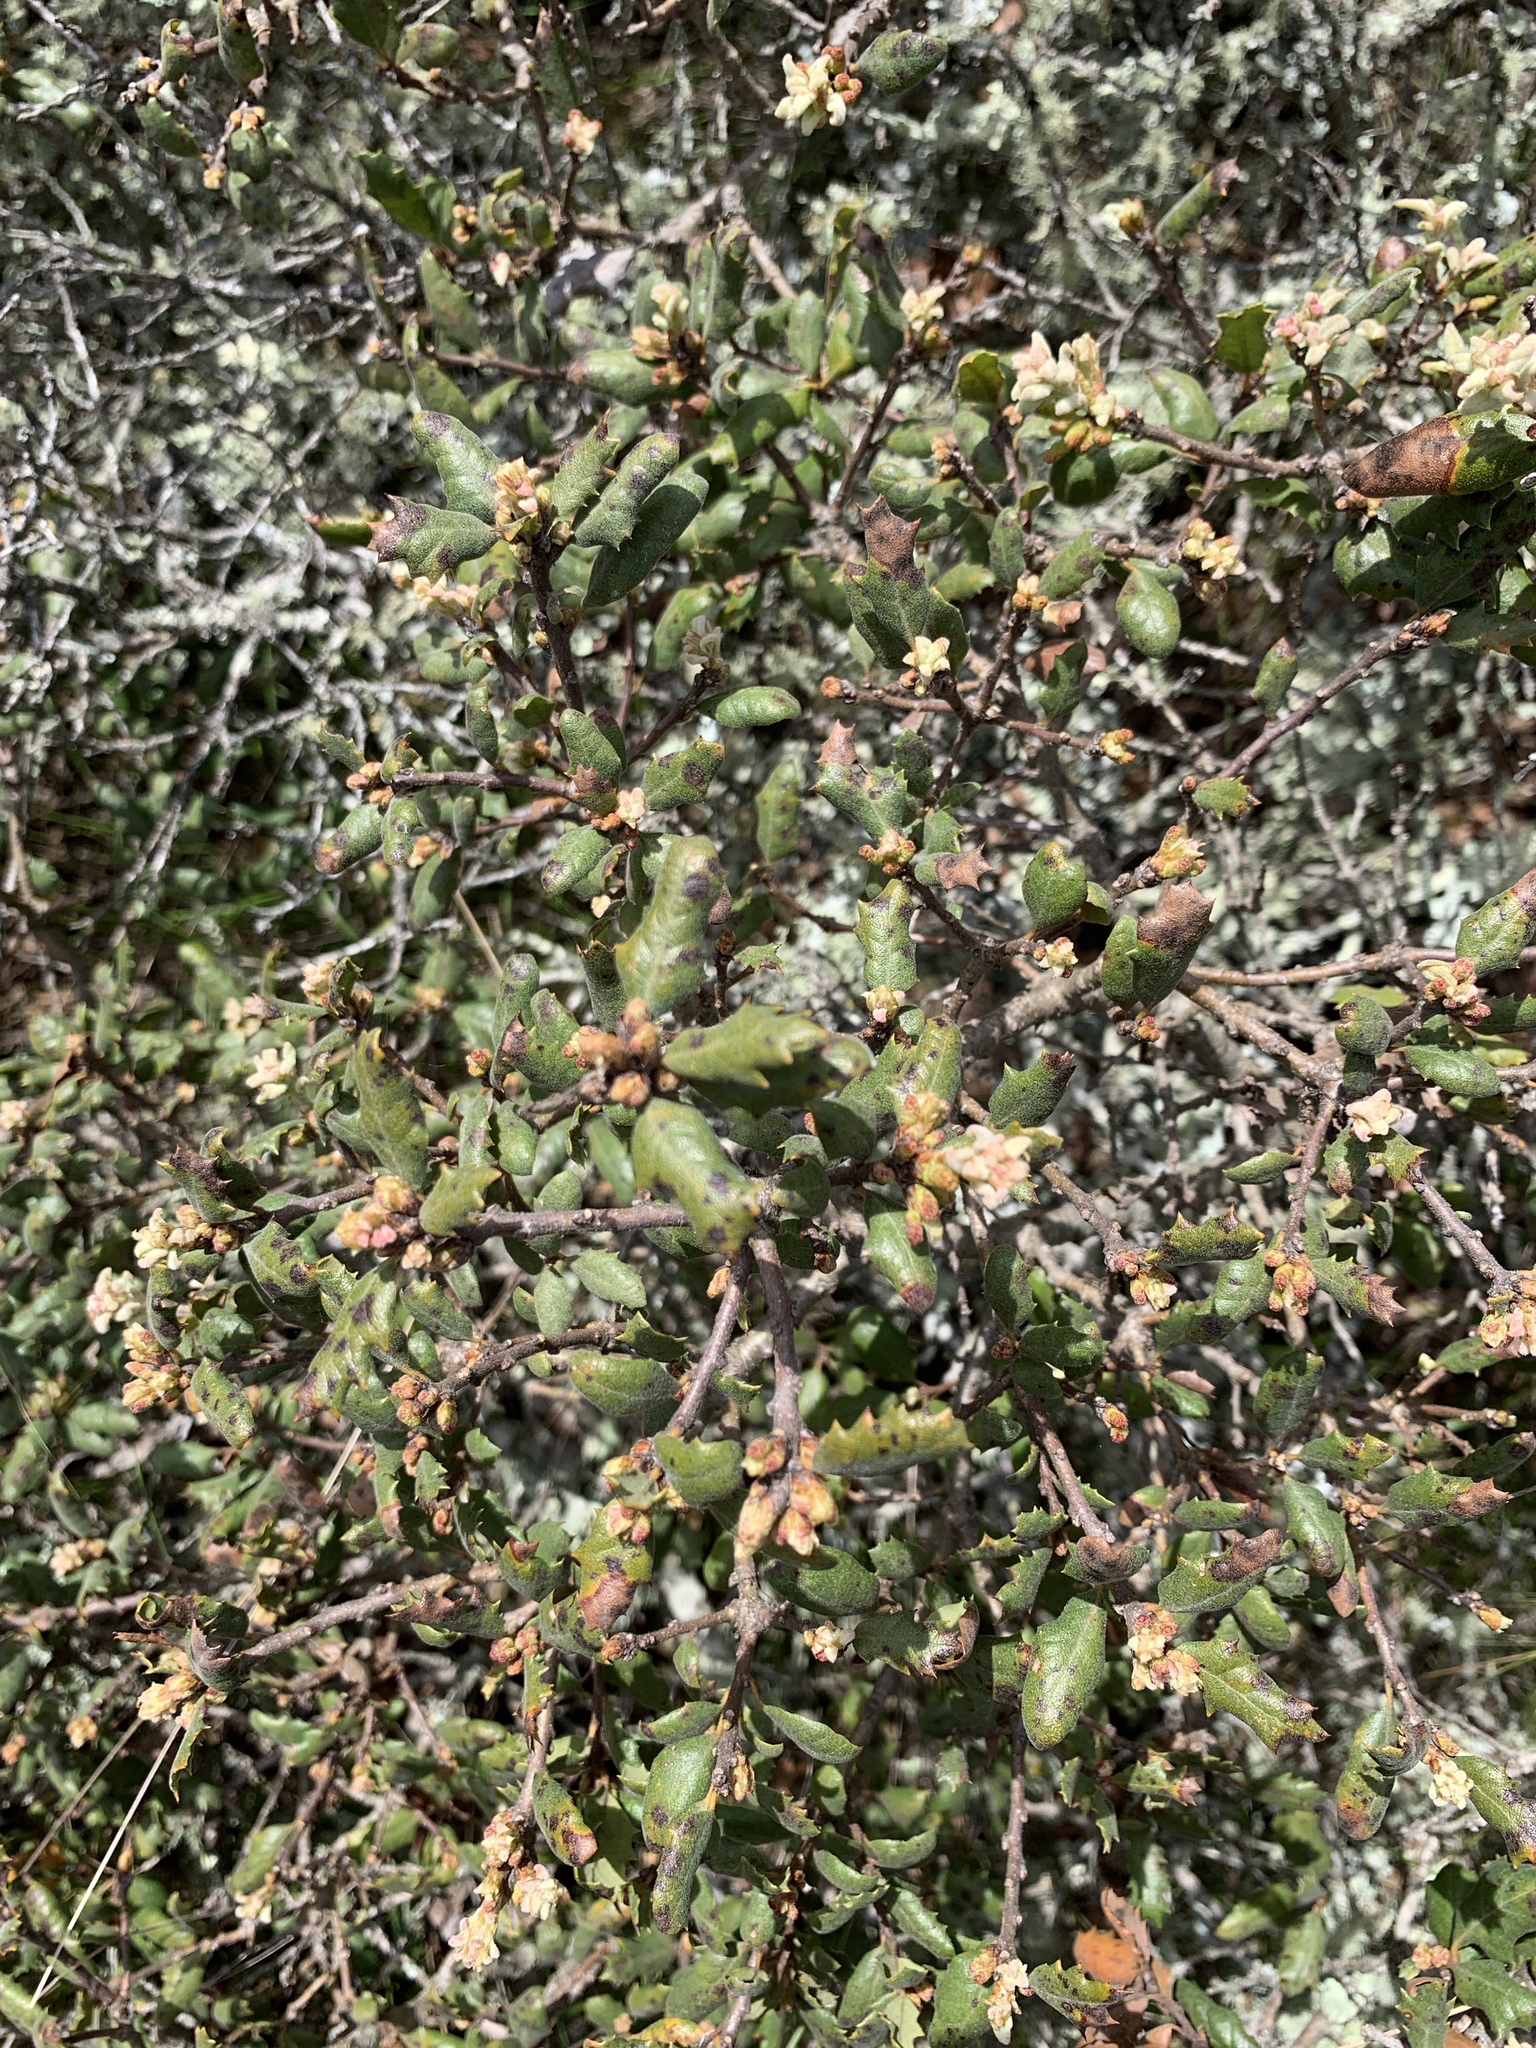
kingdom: Plantae
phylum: Tracheophyta
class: Magnoliopsida
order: Fagales
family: Fagaceae
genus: Quercus
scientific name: Quercus durata
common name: Leather oak
